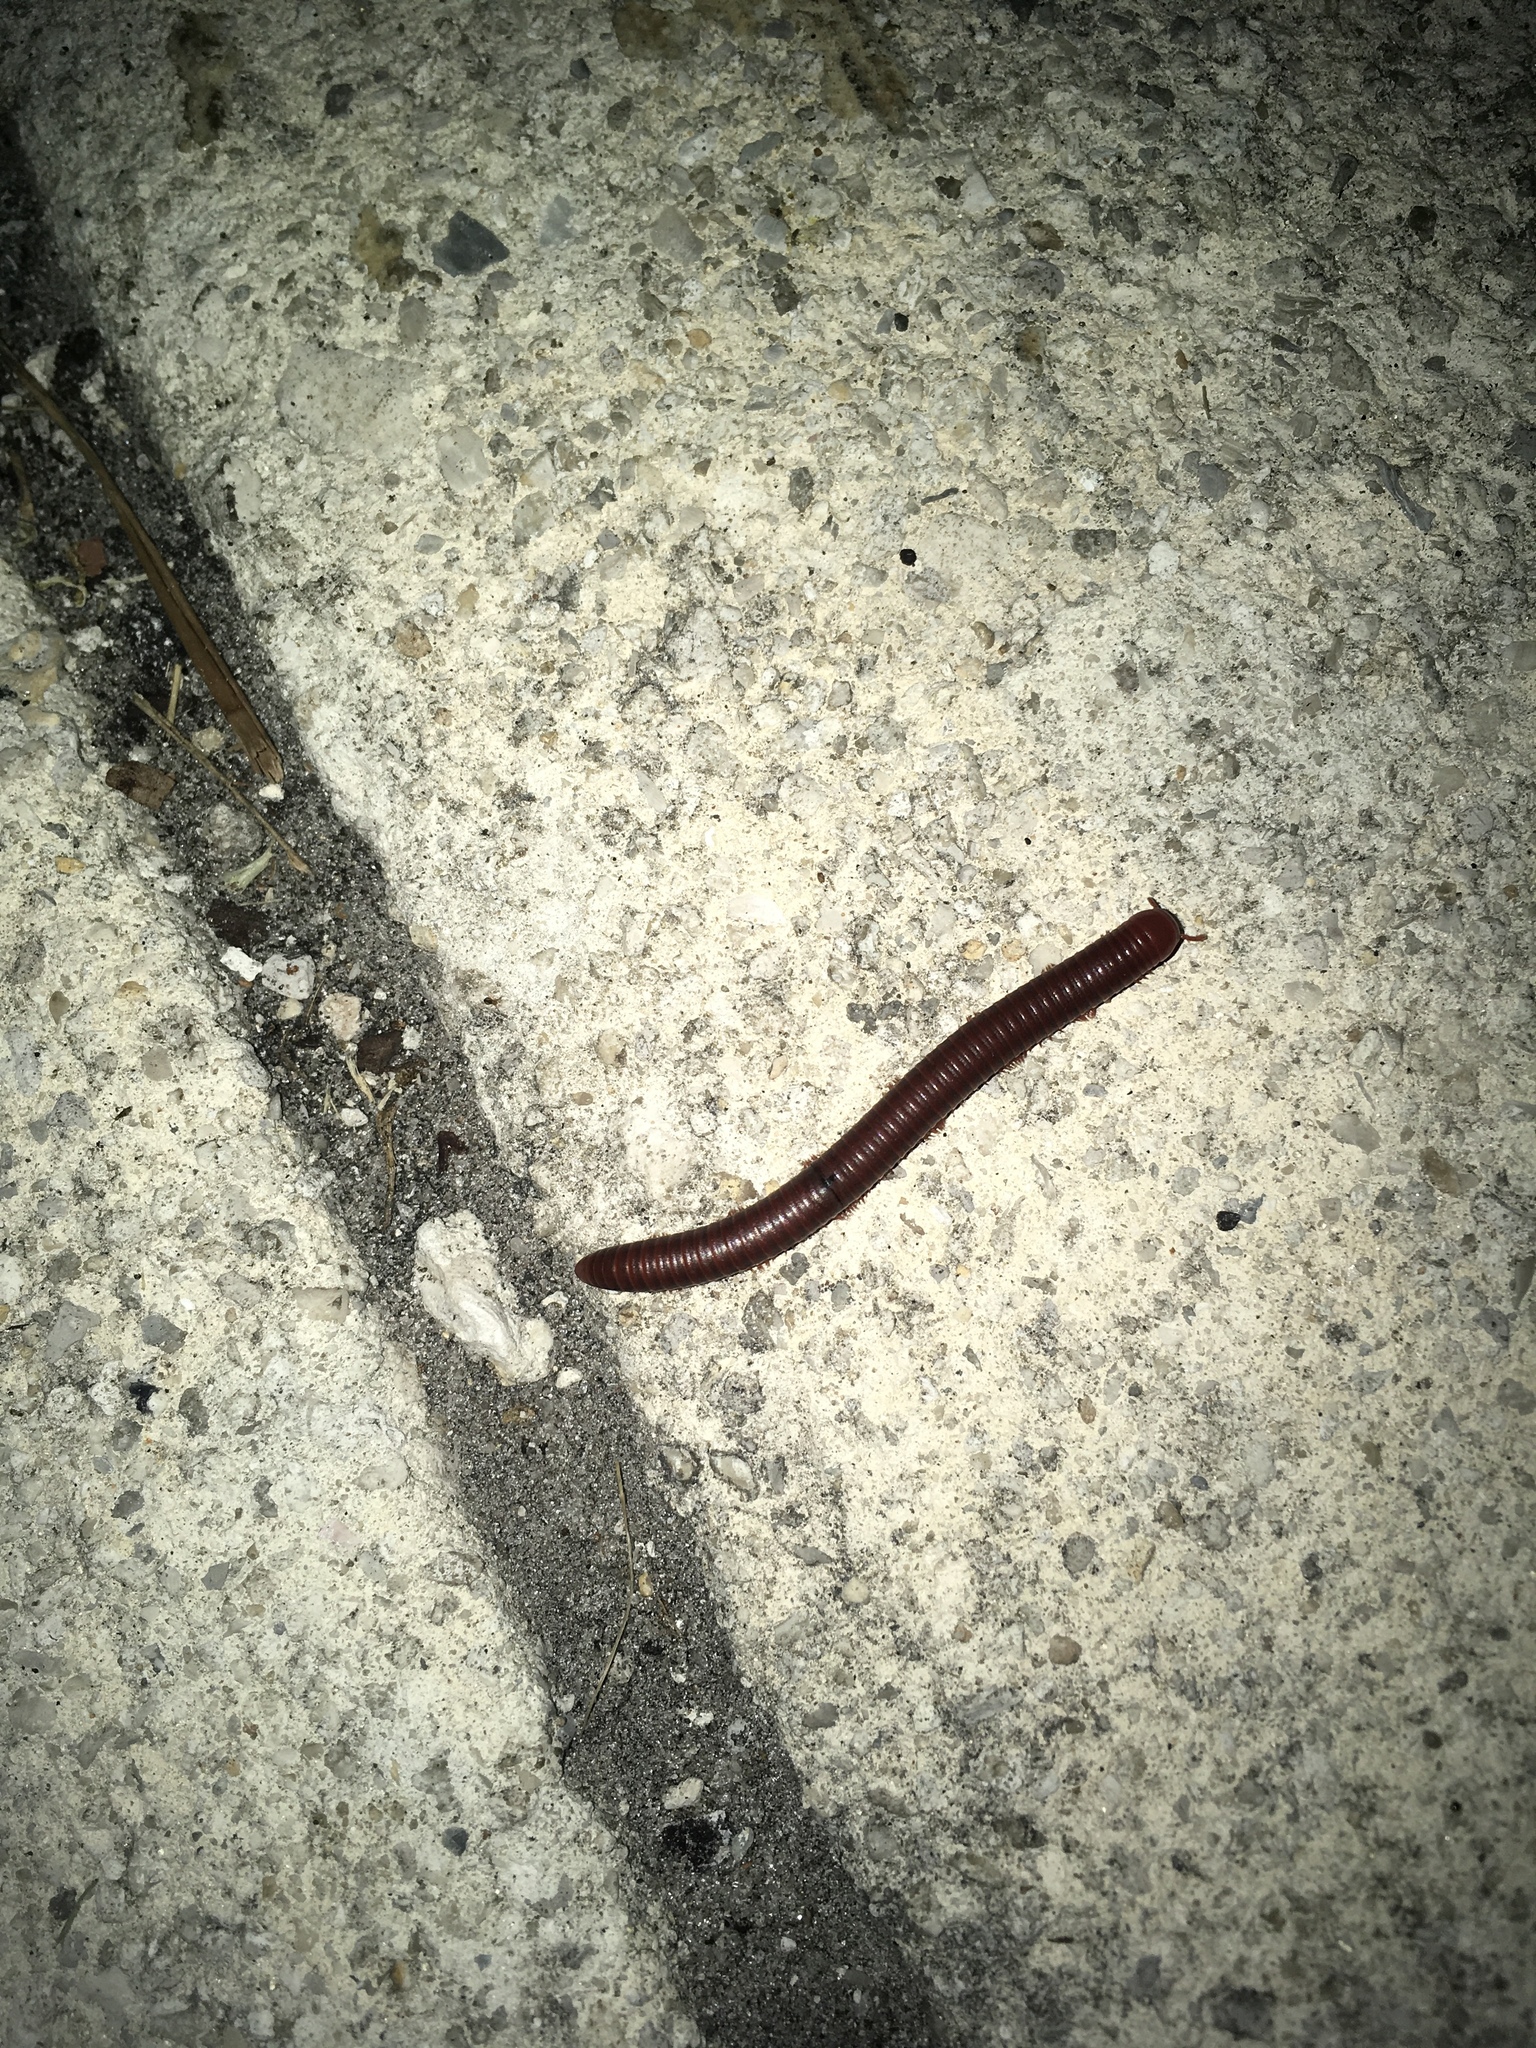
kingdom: Animalia
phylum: Arthropoda
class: Diplopoda
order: Spirobolida
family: Pachybolidae
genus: Trigoniulus
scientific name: Trigoniulus corallinus
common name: Millipede
